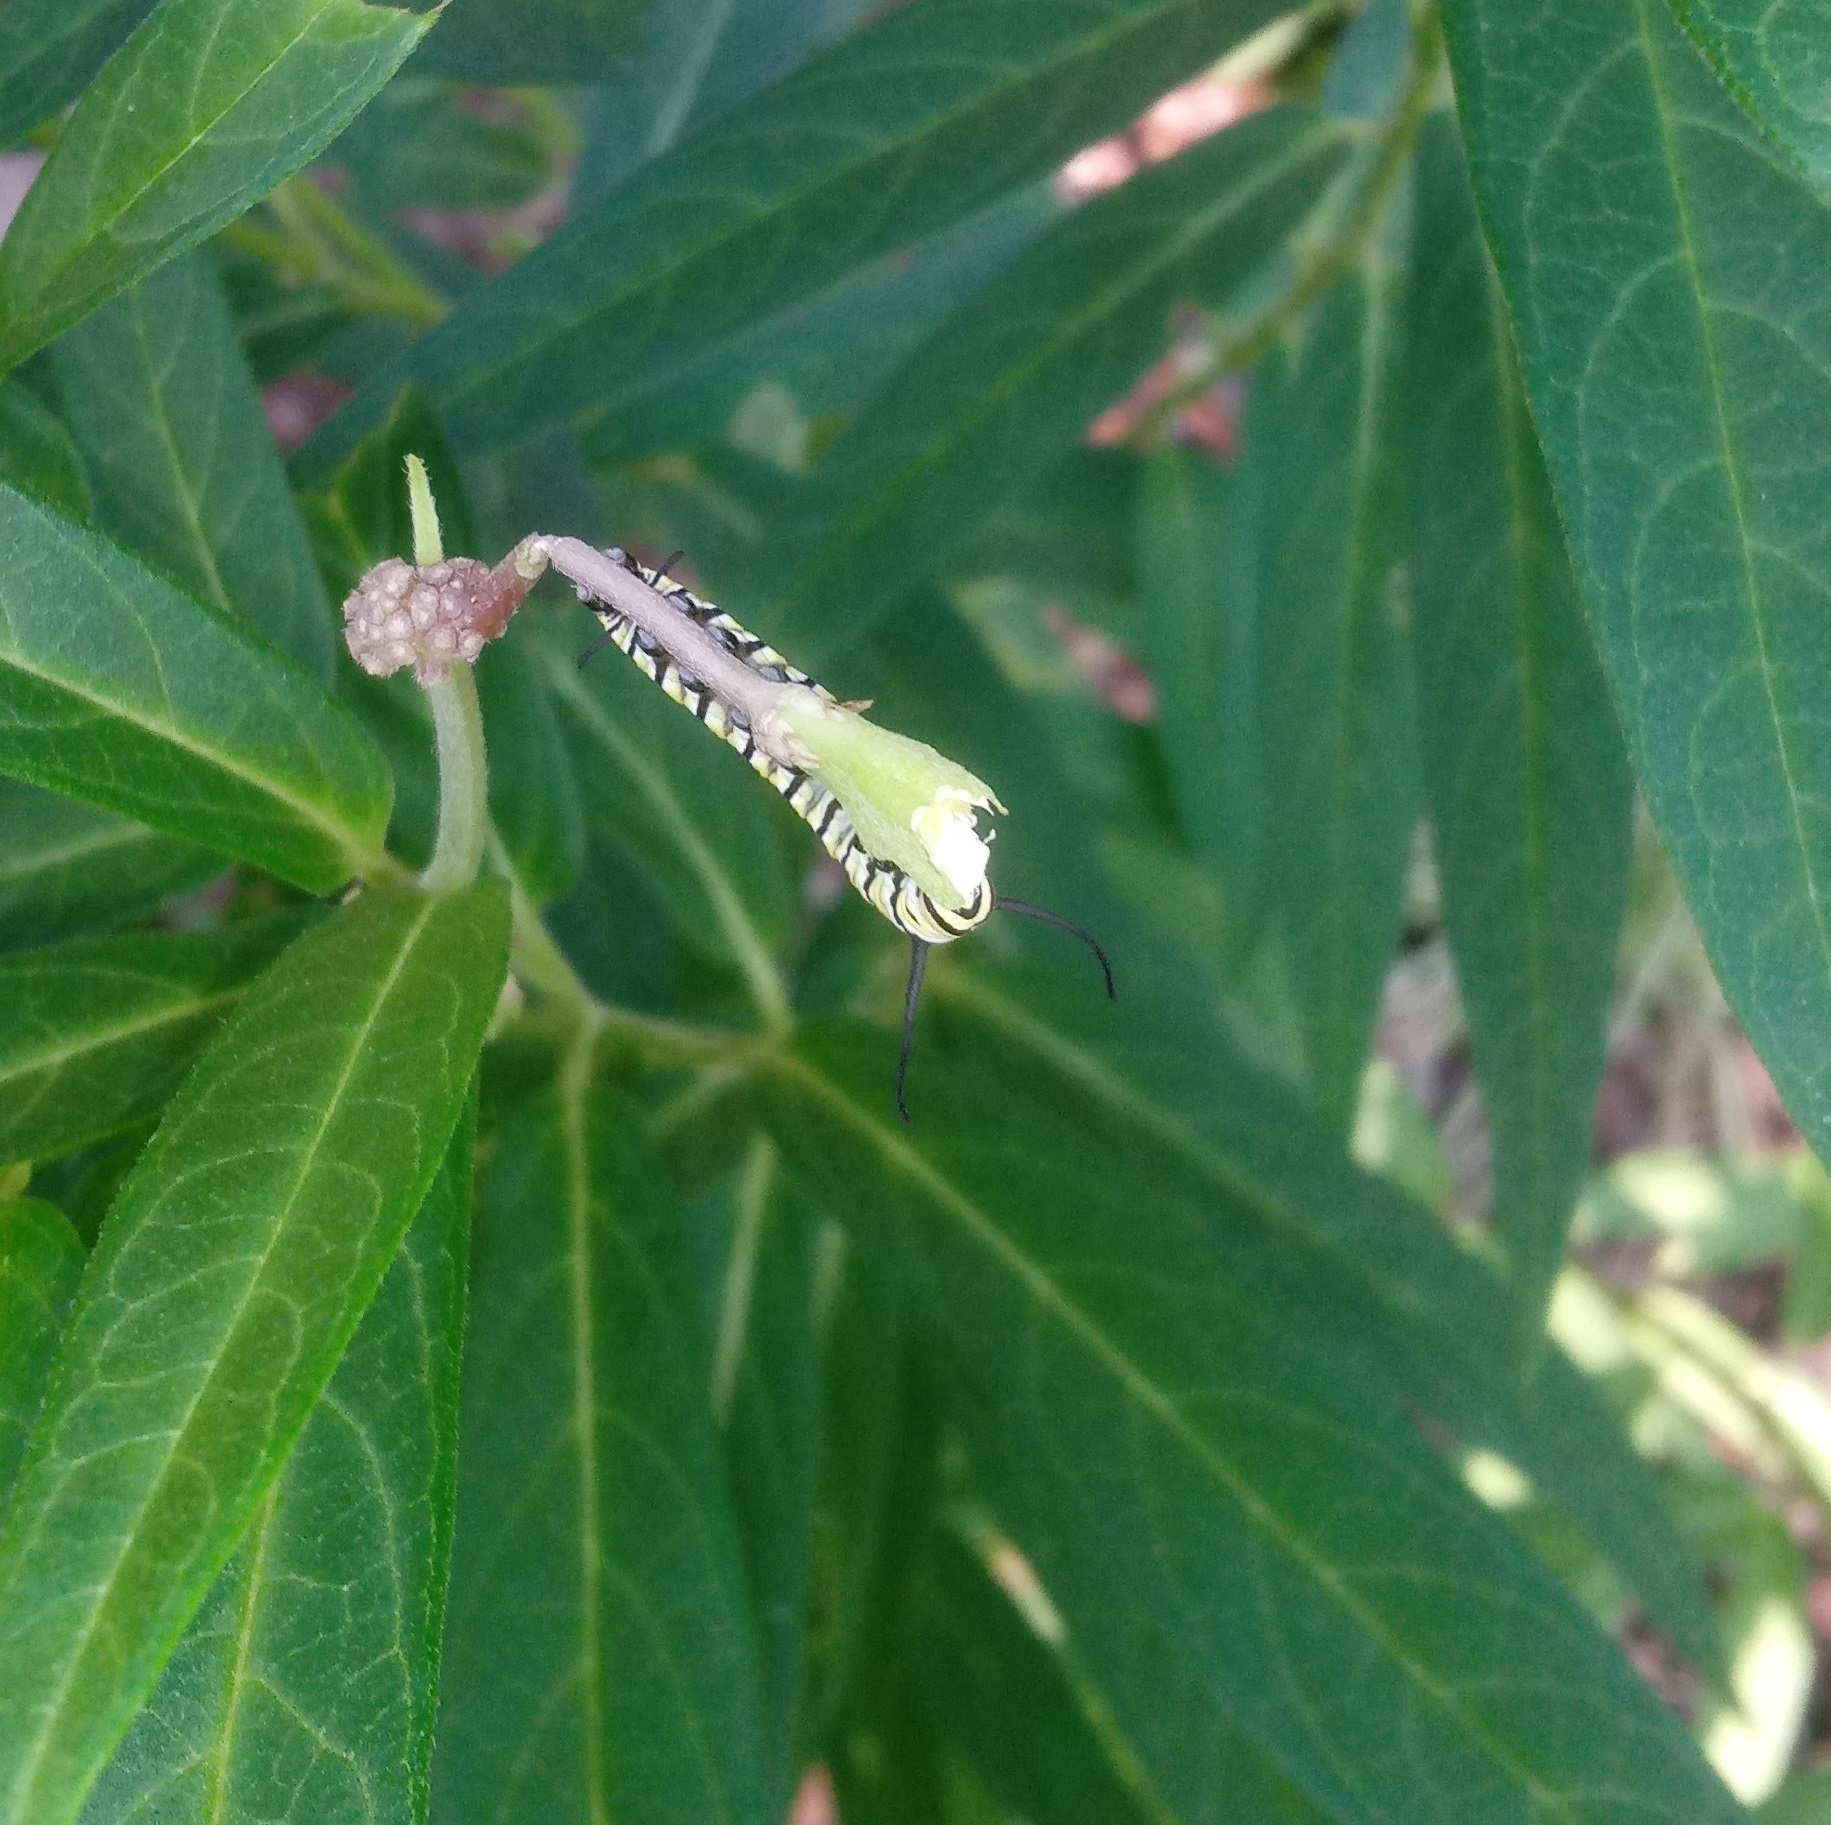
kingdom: Animalia
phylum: Arthropoda
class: Insecta
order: Lepidoptera
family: Nymphalidae
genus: Danaus
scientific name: Danaus plexippus
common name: Monarch
